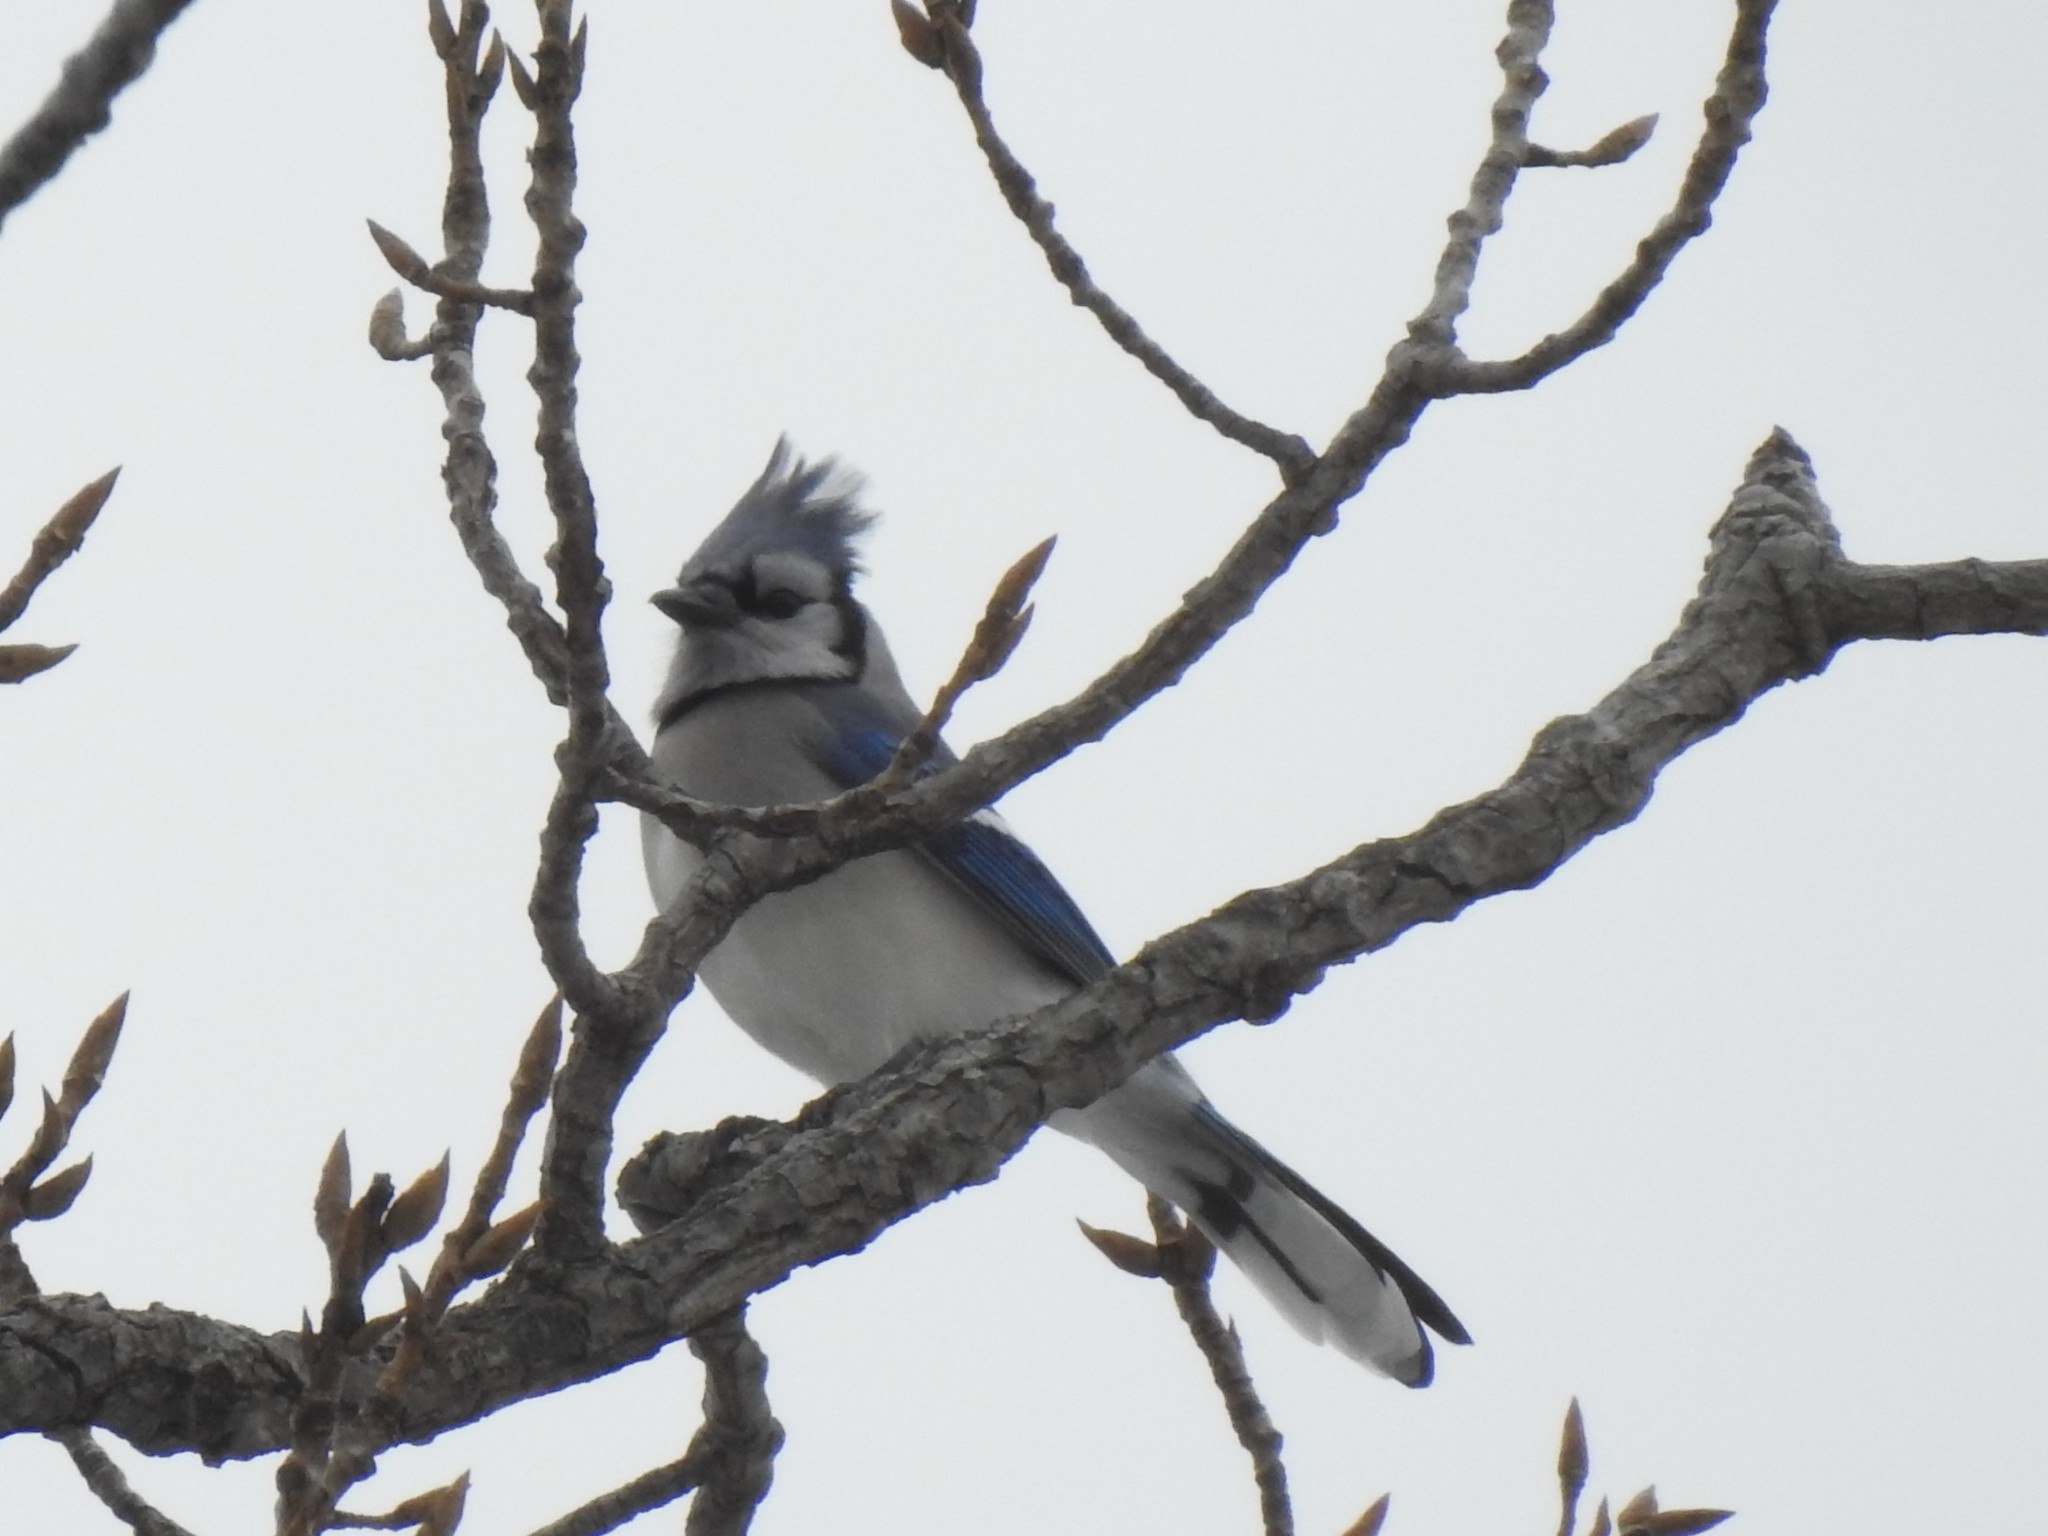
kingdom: Animalia
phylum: Chordata
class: Aves
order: Passeriformes
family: Corvidae
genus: Cyanocitta
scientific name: Cyanocitta cristata
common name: Blue jay
